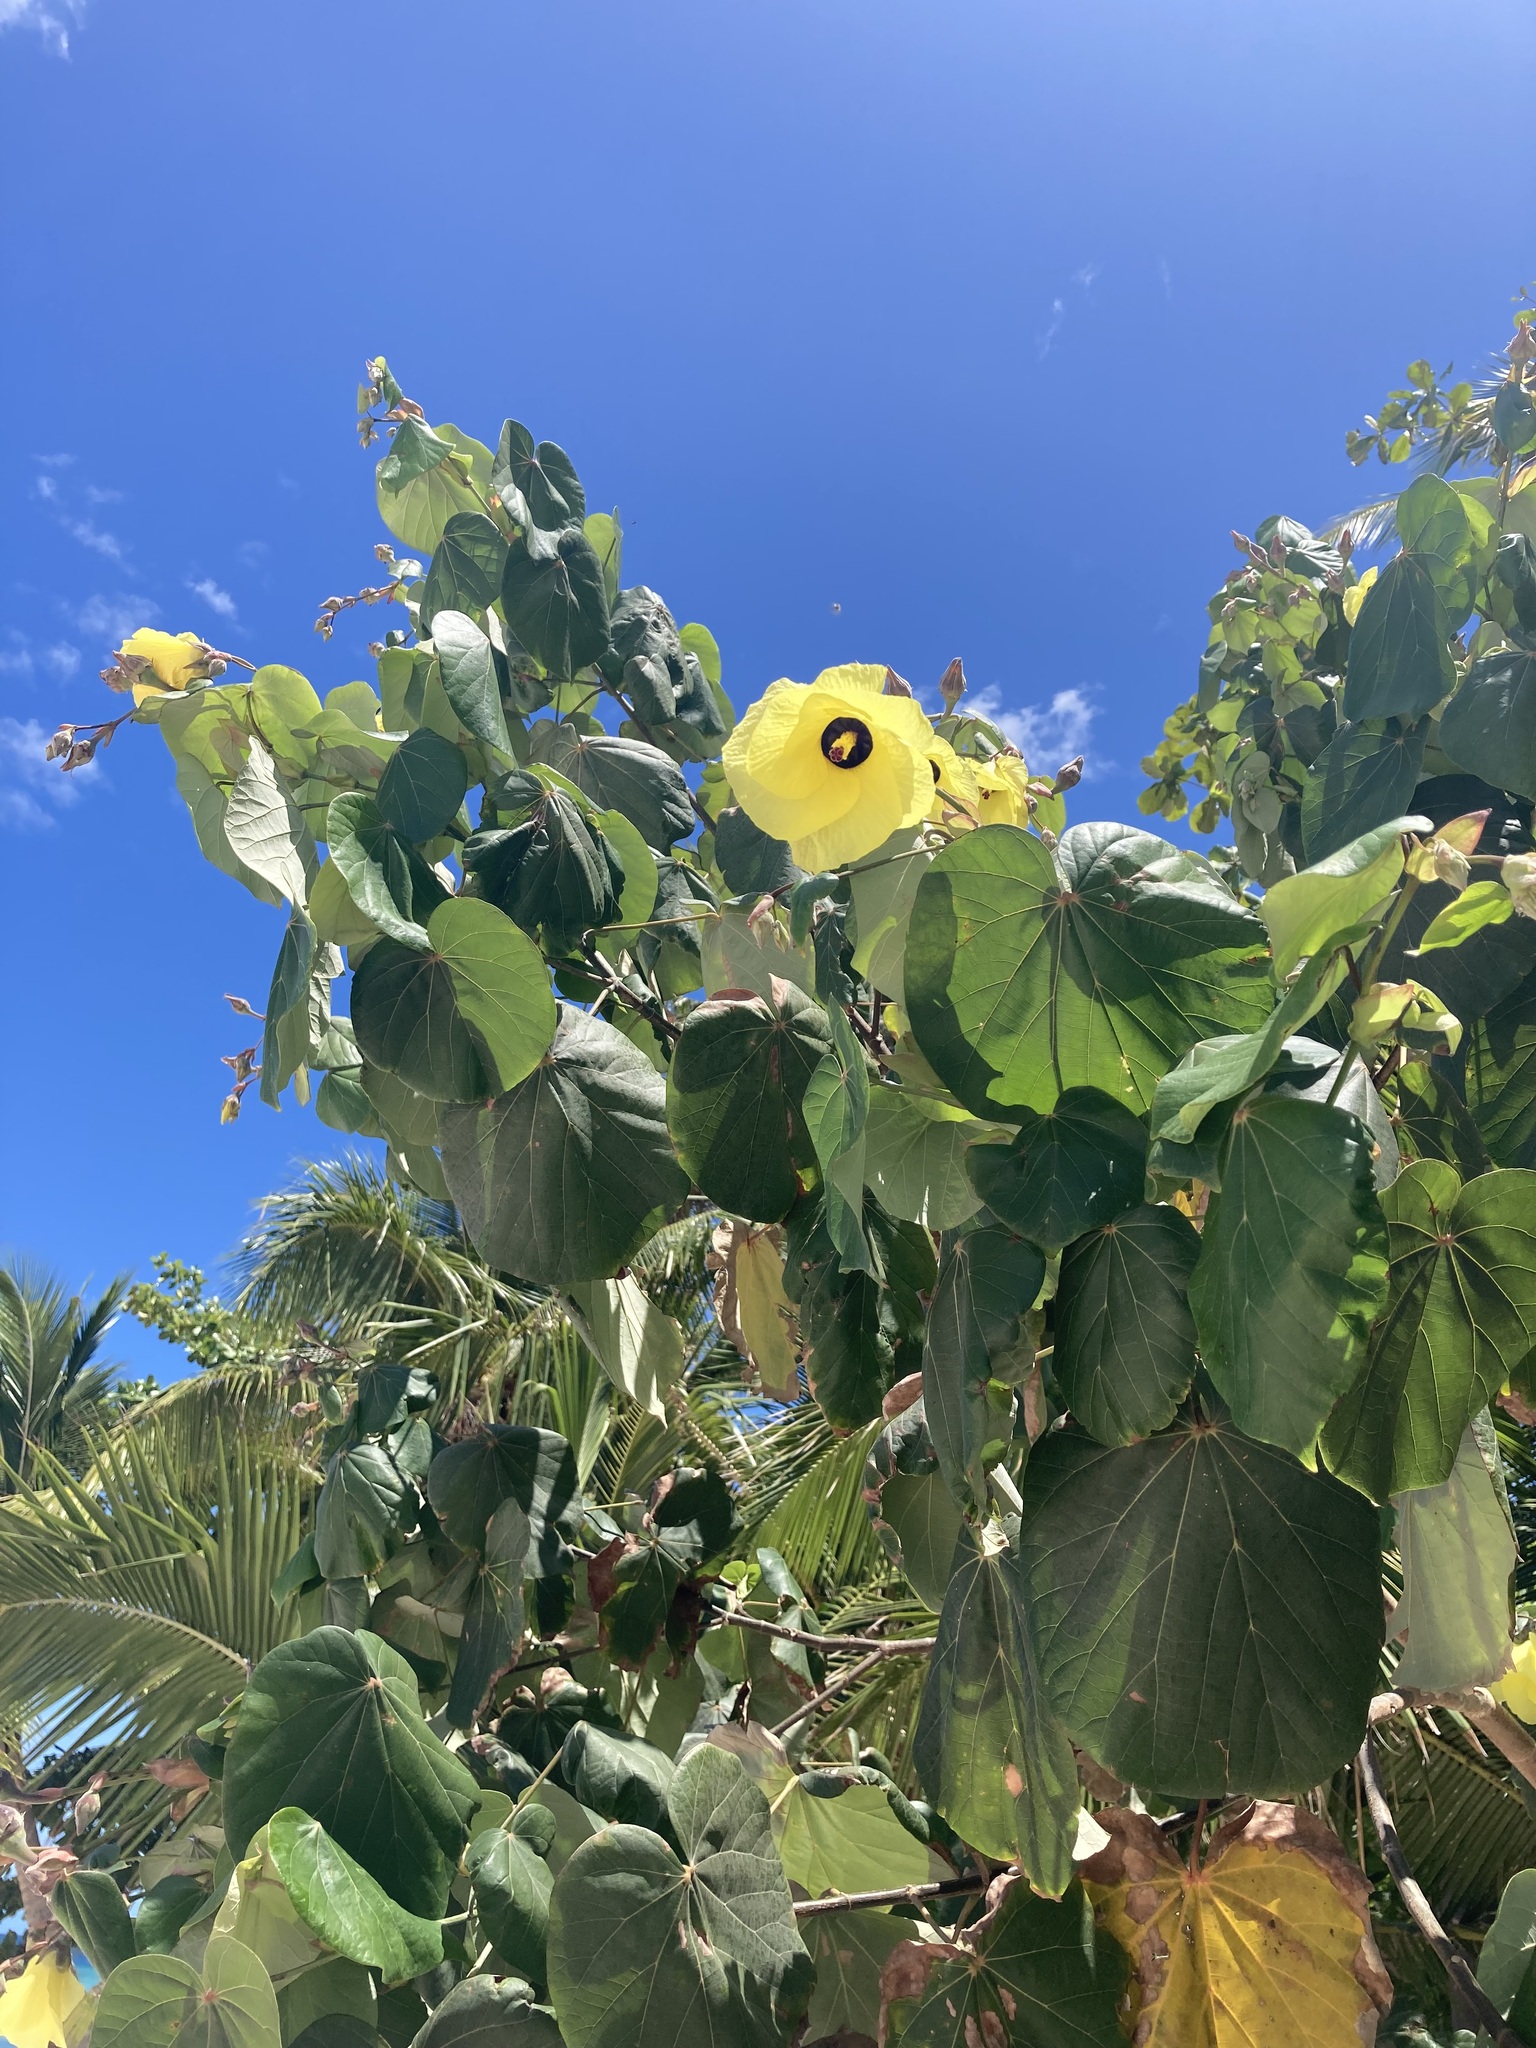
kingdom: Plantae
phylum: Tracheophyta
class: Magnoliopsida
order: Malvales
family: Malvaceae
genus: Talipariti
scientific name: Talipariti tiliaceum
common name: Sea hibiscus
